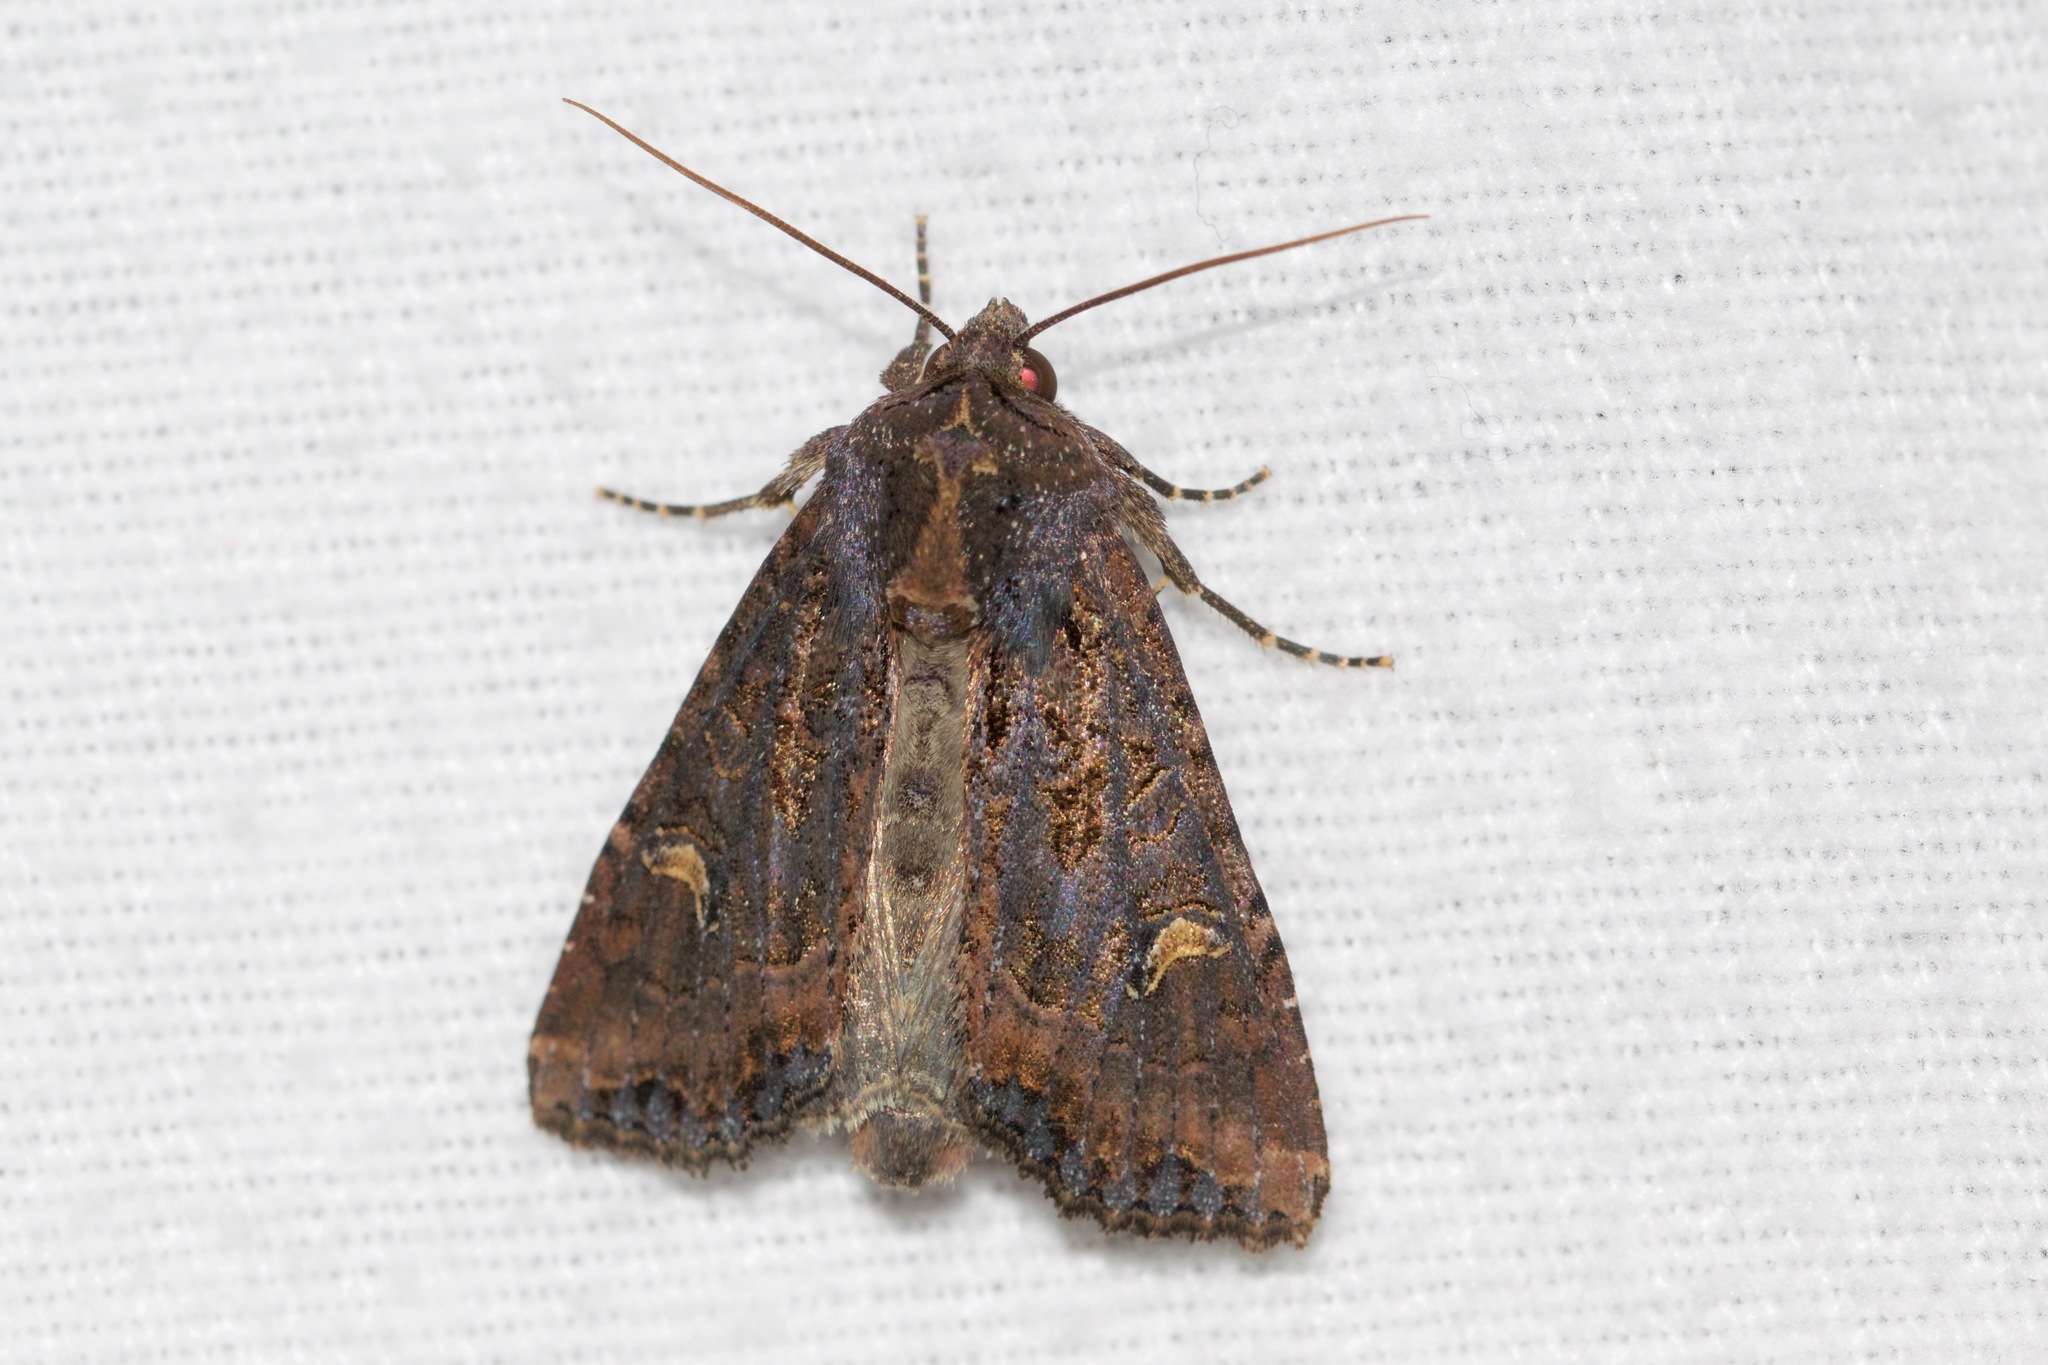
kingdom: Animalia
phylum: Arthropoda
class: Insecta
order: Lepidoptera
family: Noctuidae
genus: Helotropha
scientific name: Helotropha reniformis
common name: Kidney-spotted rustic moth
